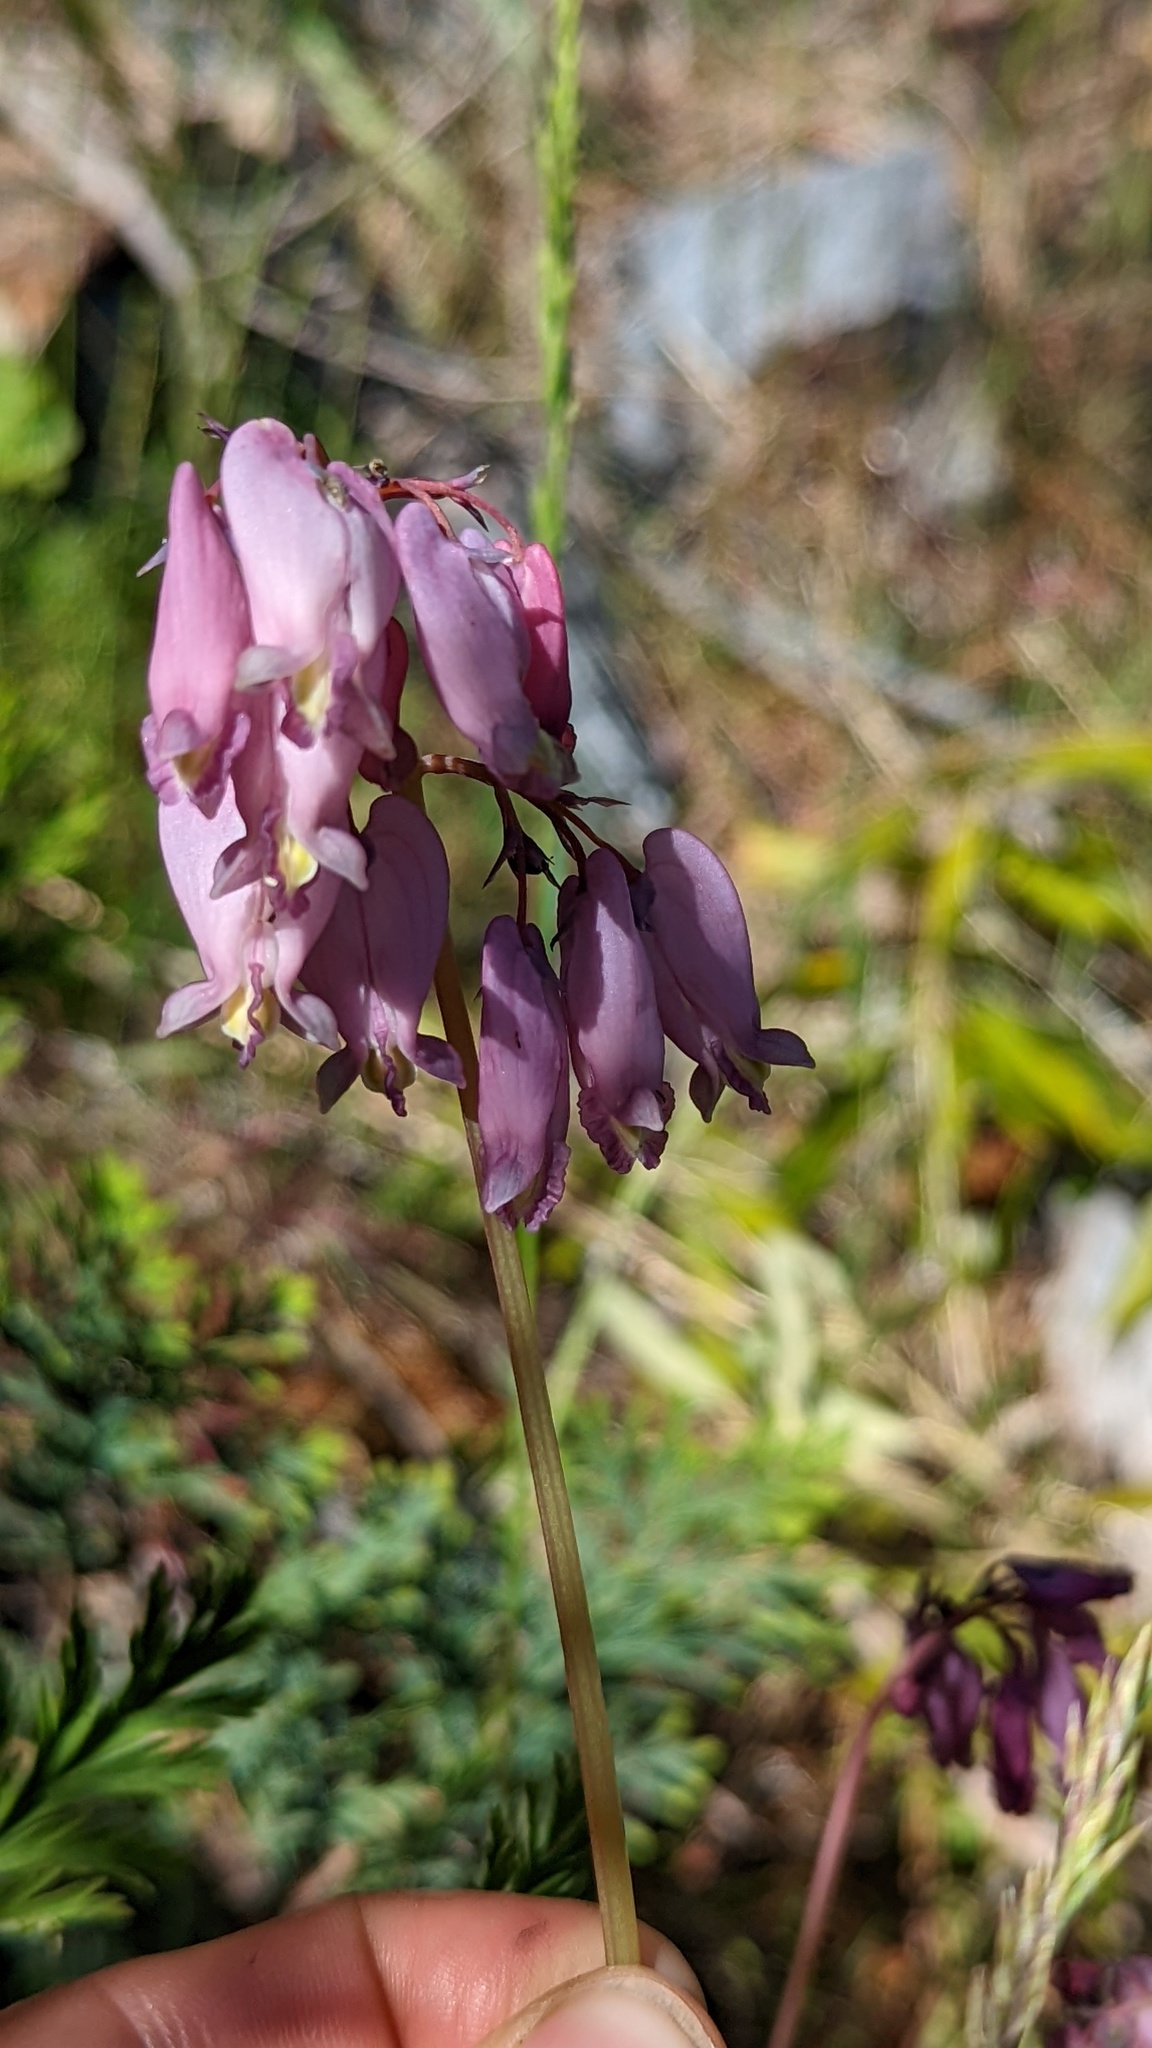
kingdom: Plantae
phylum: Tracheophyta
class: Magnoliopsida
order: Ranunculales
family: Papaveraceae
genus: Dicentra
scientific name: Dicentra formosa
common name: Bleeding-heart
